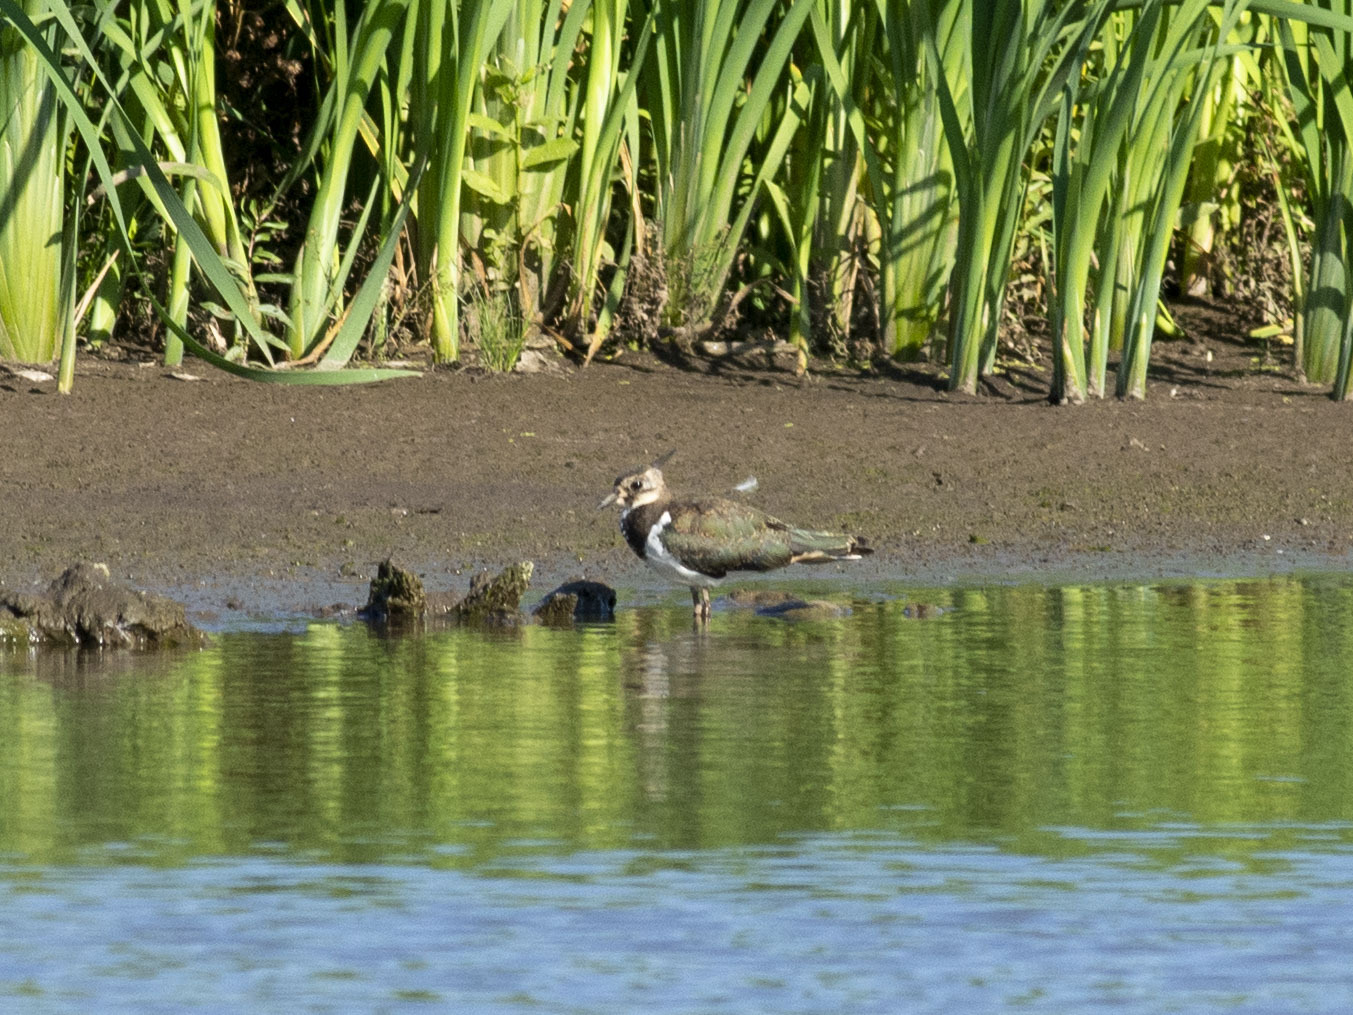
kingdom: Animalia
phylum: Chordata
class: Aves
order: Charadriiformes
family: Charadriidae
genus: Vanellus
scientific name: Vanellus vanellus
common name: Northern lapwing
